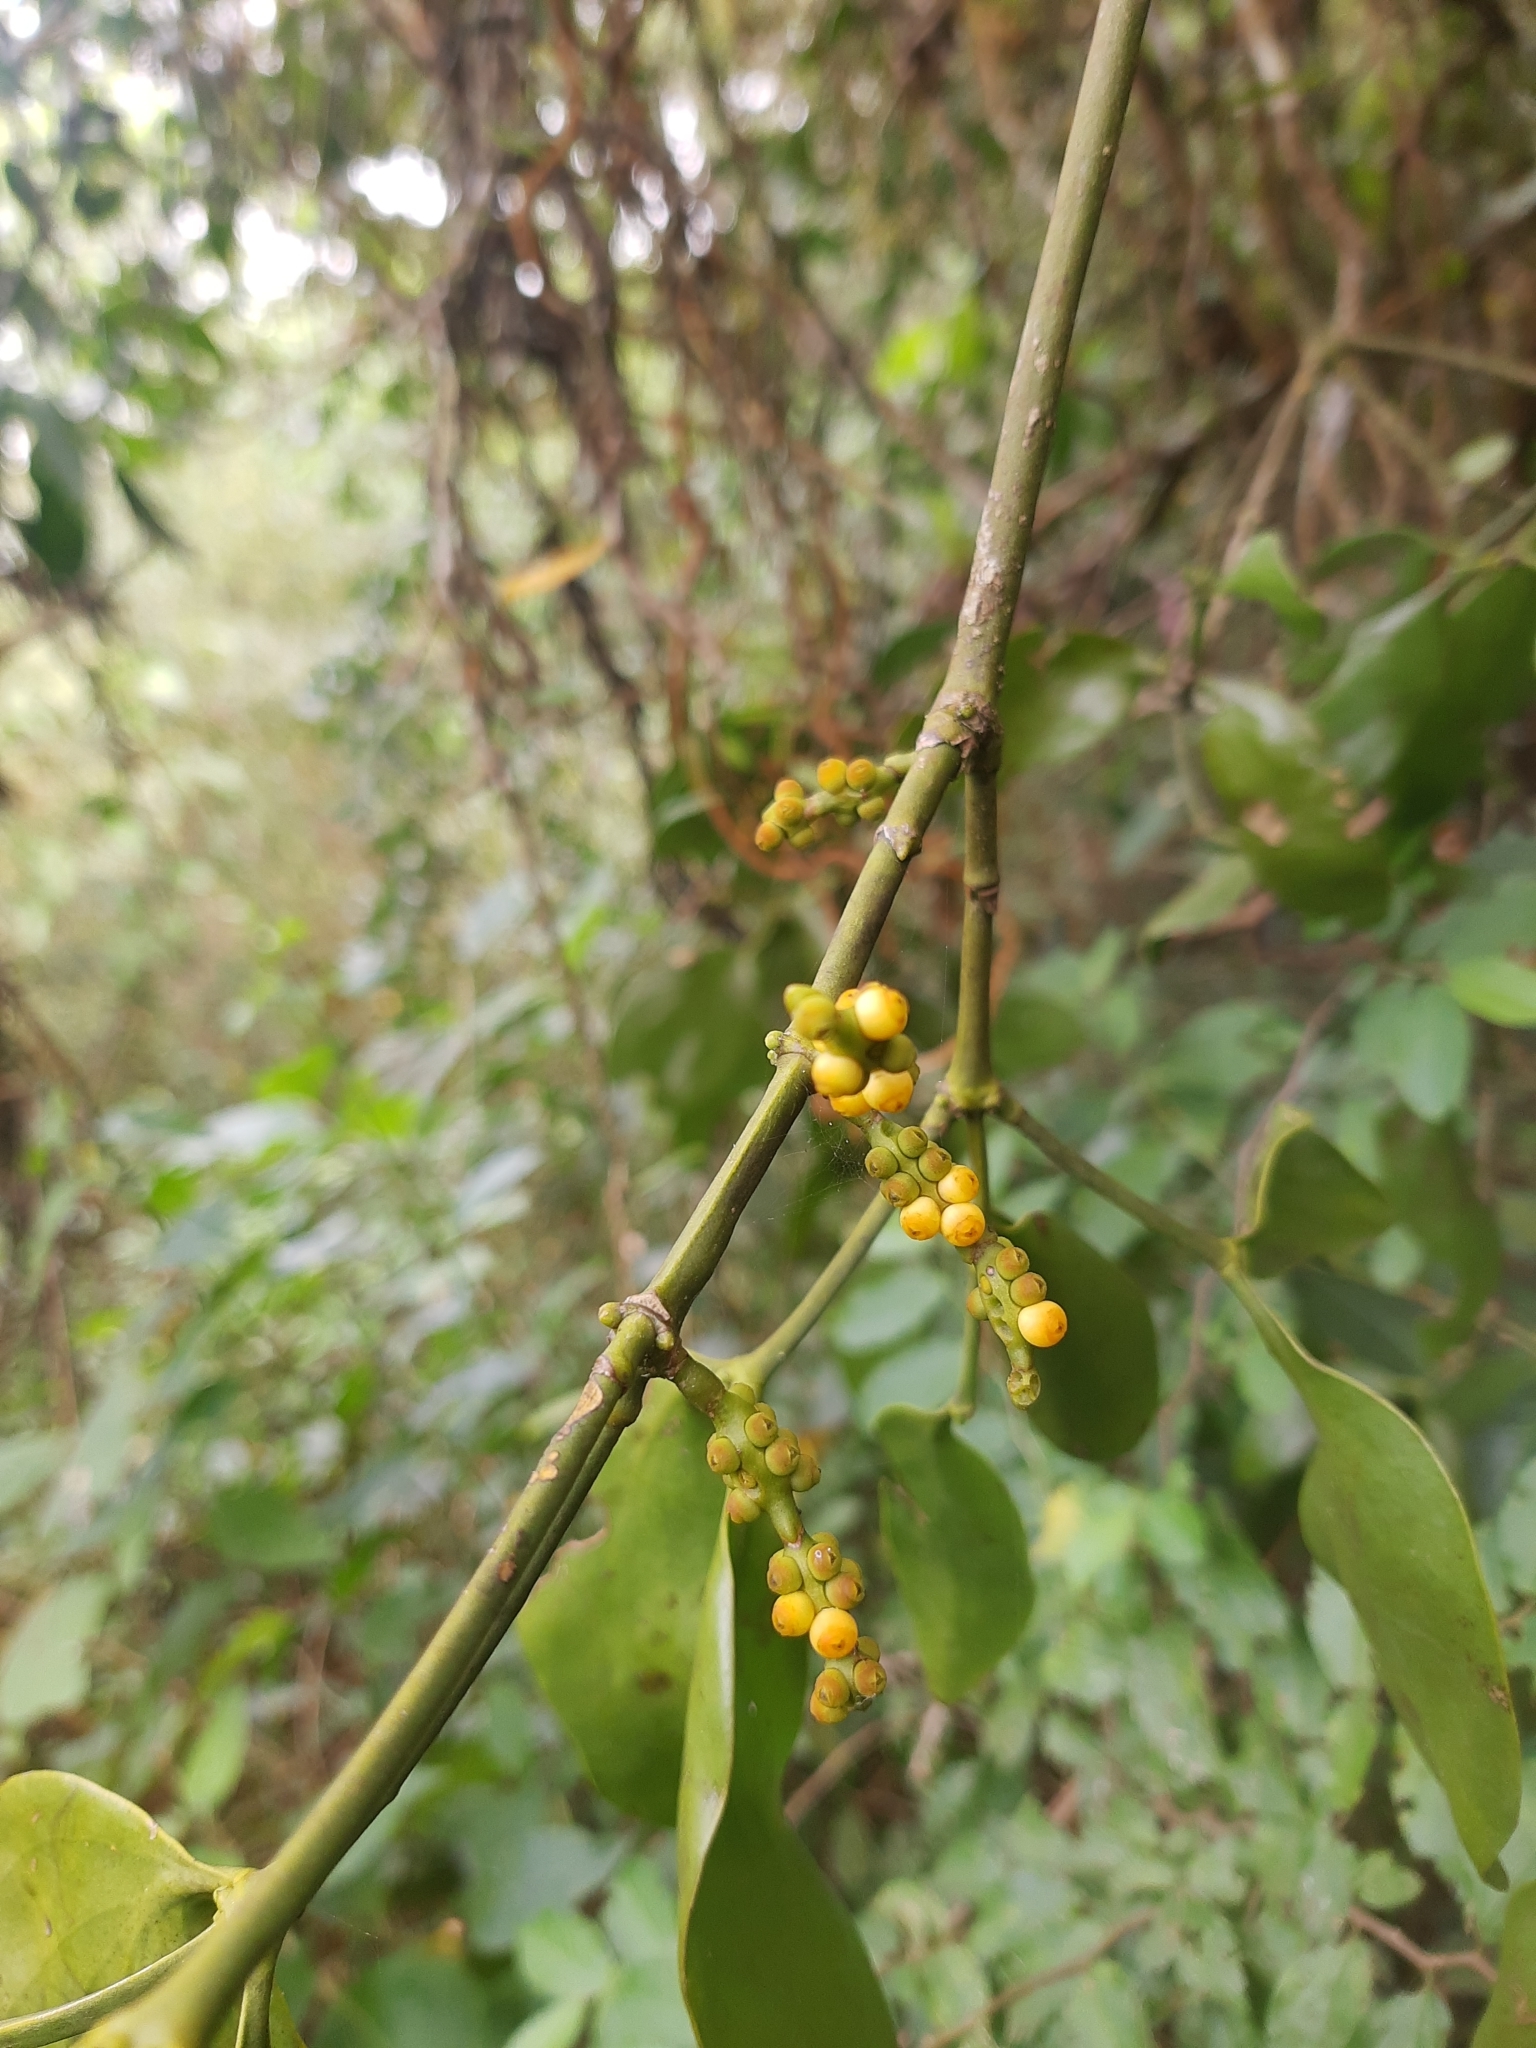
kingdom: Plantae
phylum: Tracheophyta
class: Magnoliopsida
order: Santalales
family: Viscaceae
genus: Phoradendron
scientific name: Phoradendron bathyoryctum
